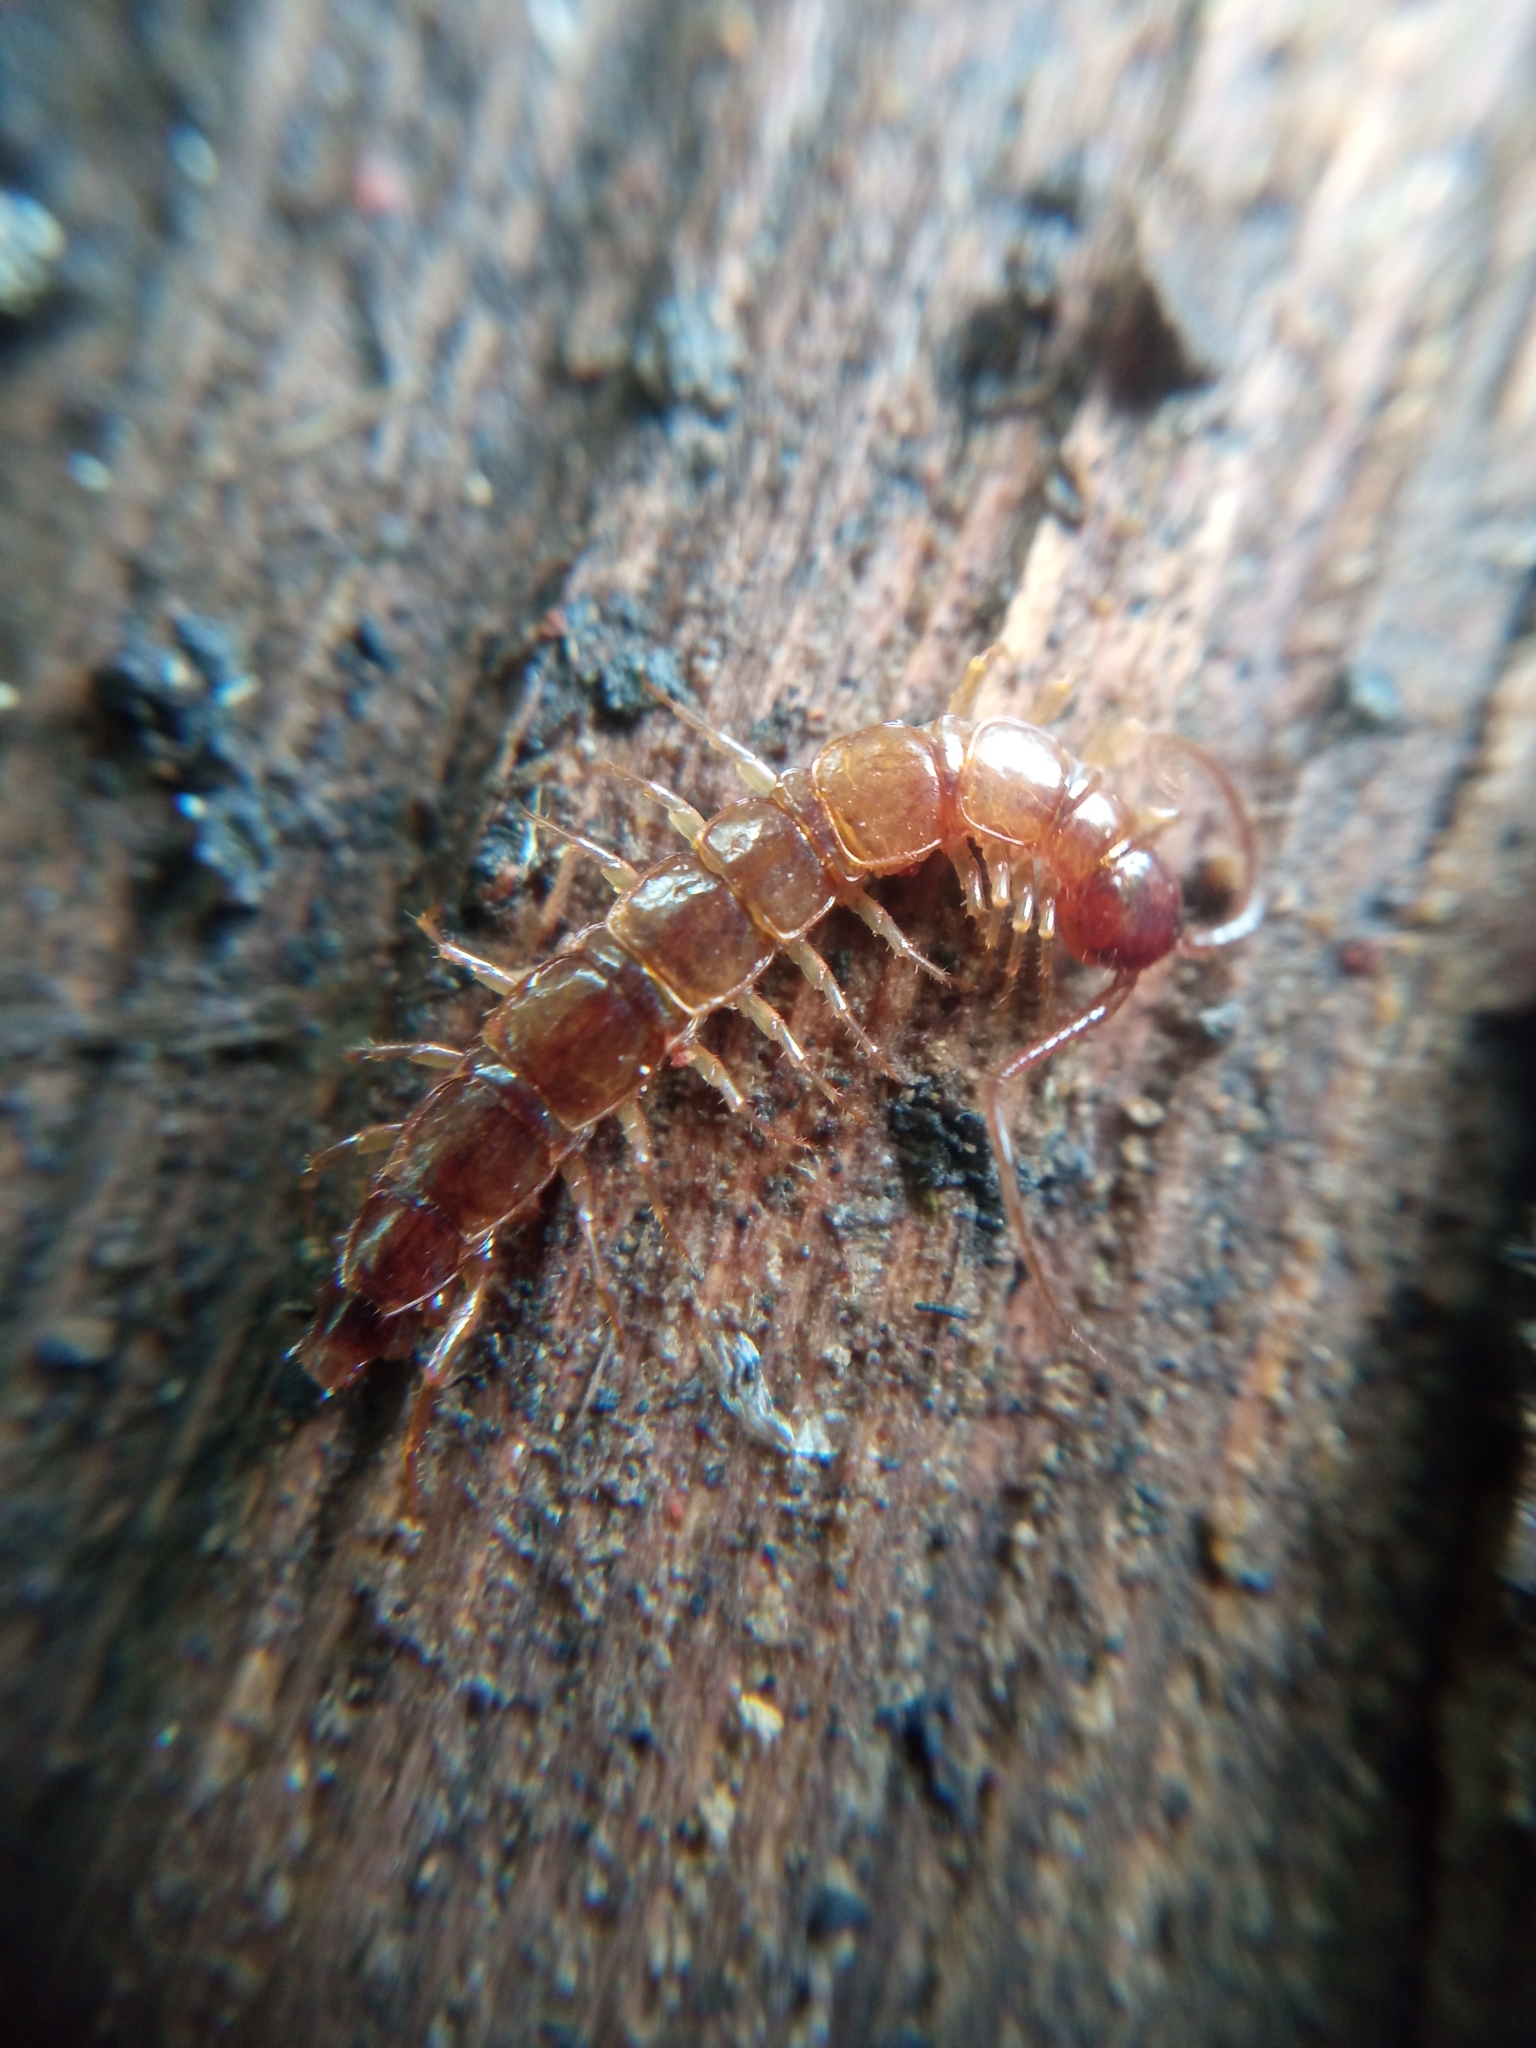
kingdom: Animalia
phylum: Arthropoda
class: Chilopoda
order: Lithobiomorpha
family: Lithobiidae
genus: Lithobius
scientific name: Lithobius forficatus
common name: Centipede
